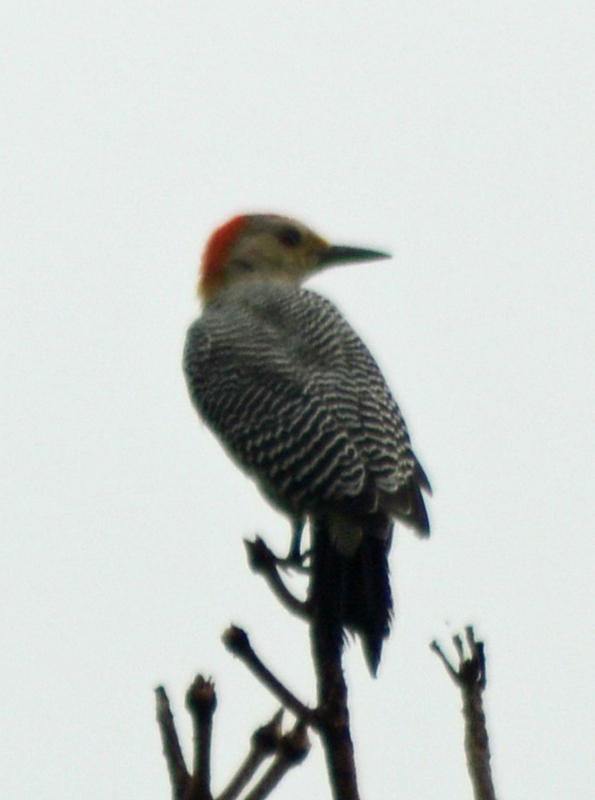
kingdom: Animalia
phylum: Chordata
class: Aves
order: Piciformes
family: Picidae
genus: Melanerpes
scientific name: Melanerpes aurifrons
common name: Golden-fronted woodpecker
